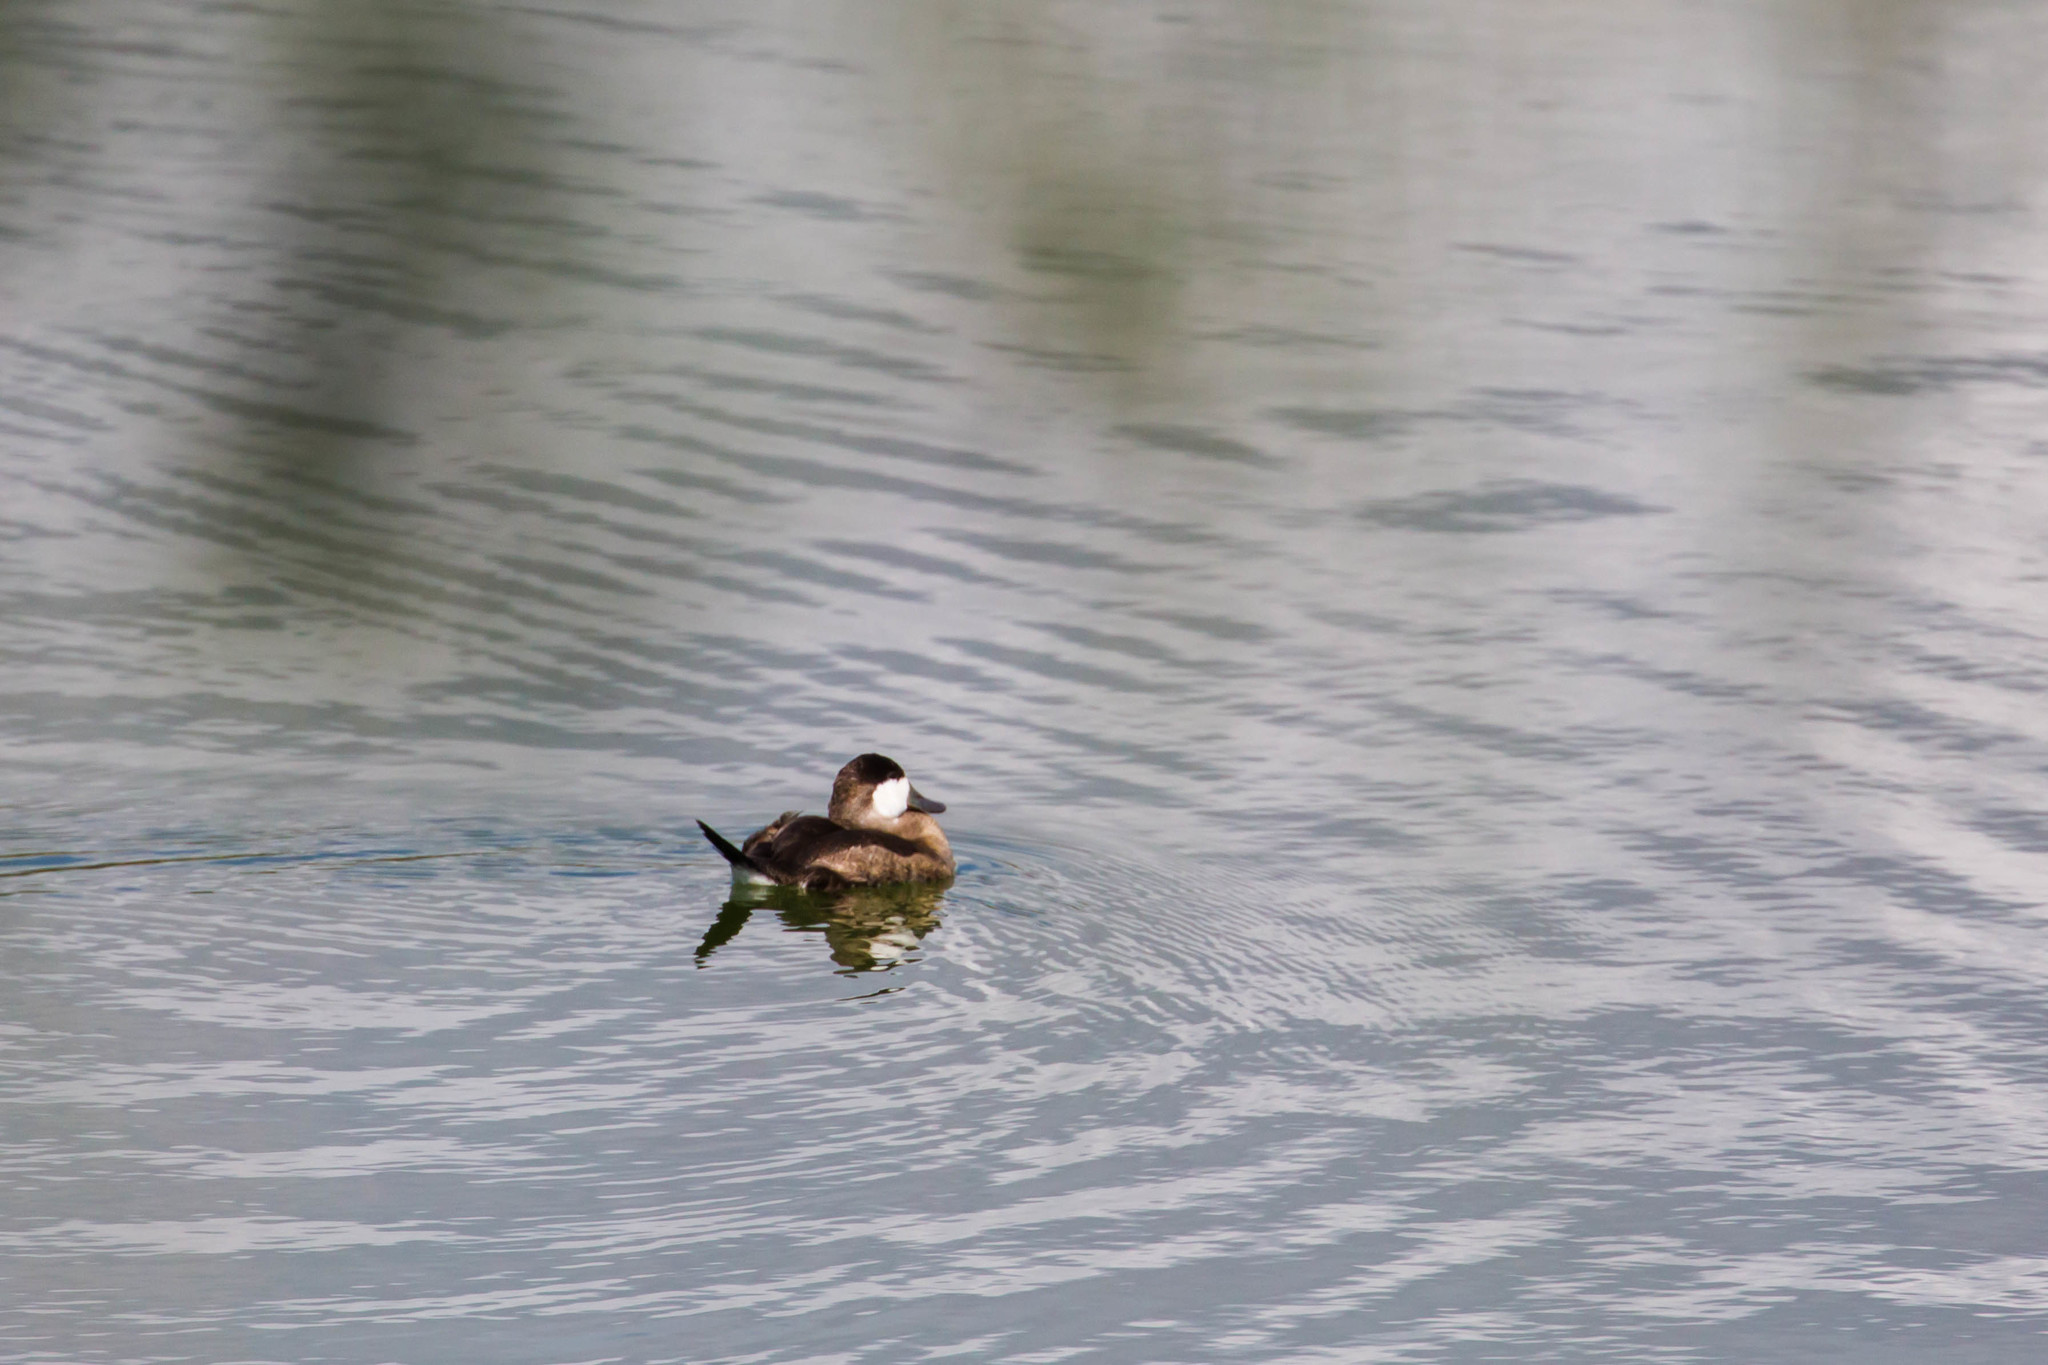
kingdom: Animalia
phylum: Chordata
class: Aves
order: Anseriformes
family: Anatidae
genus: Oxyura
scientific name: Oxyura jamaicensis
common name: Ruddy duck
